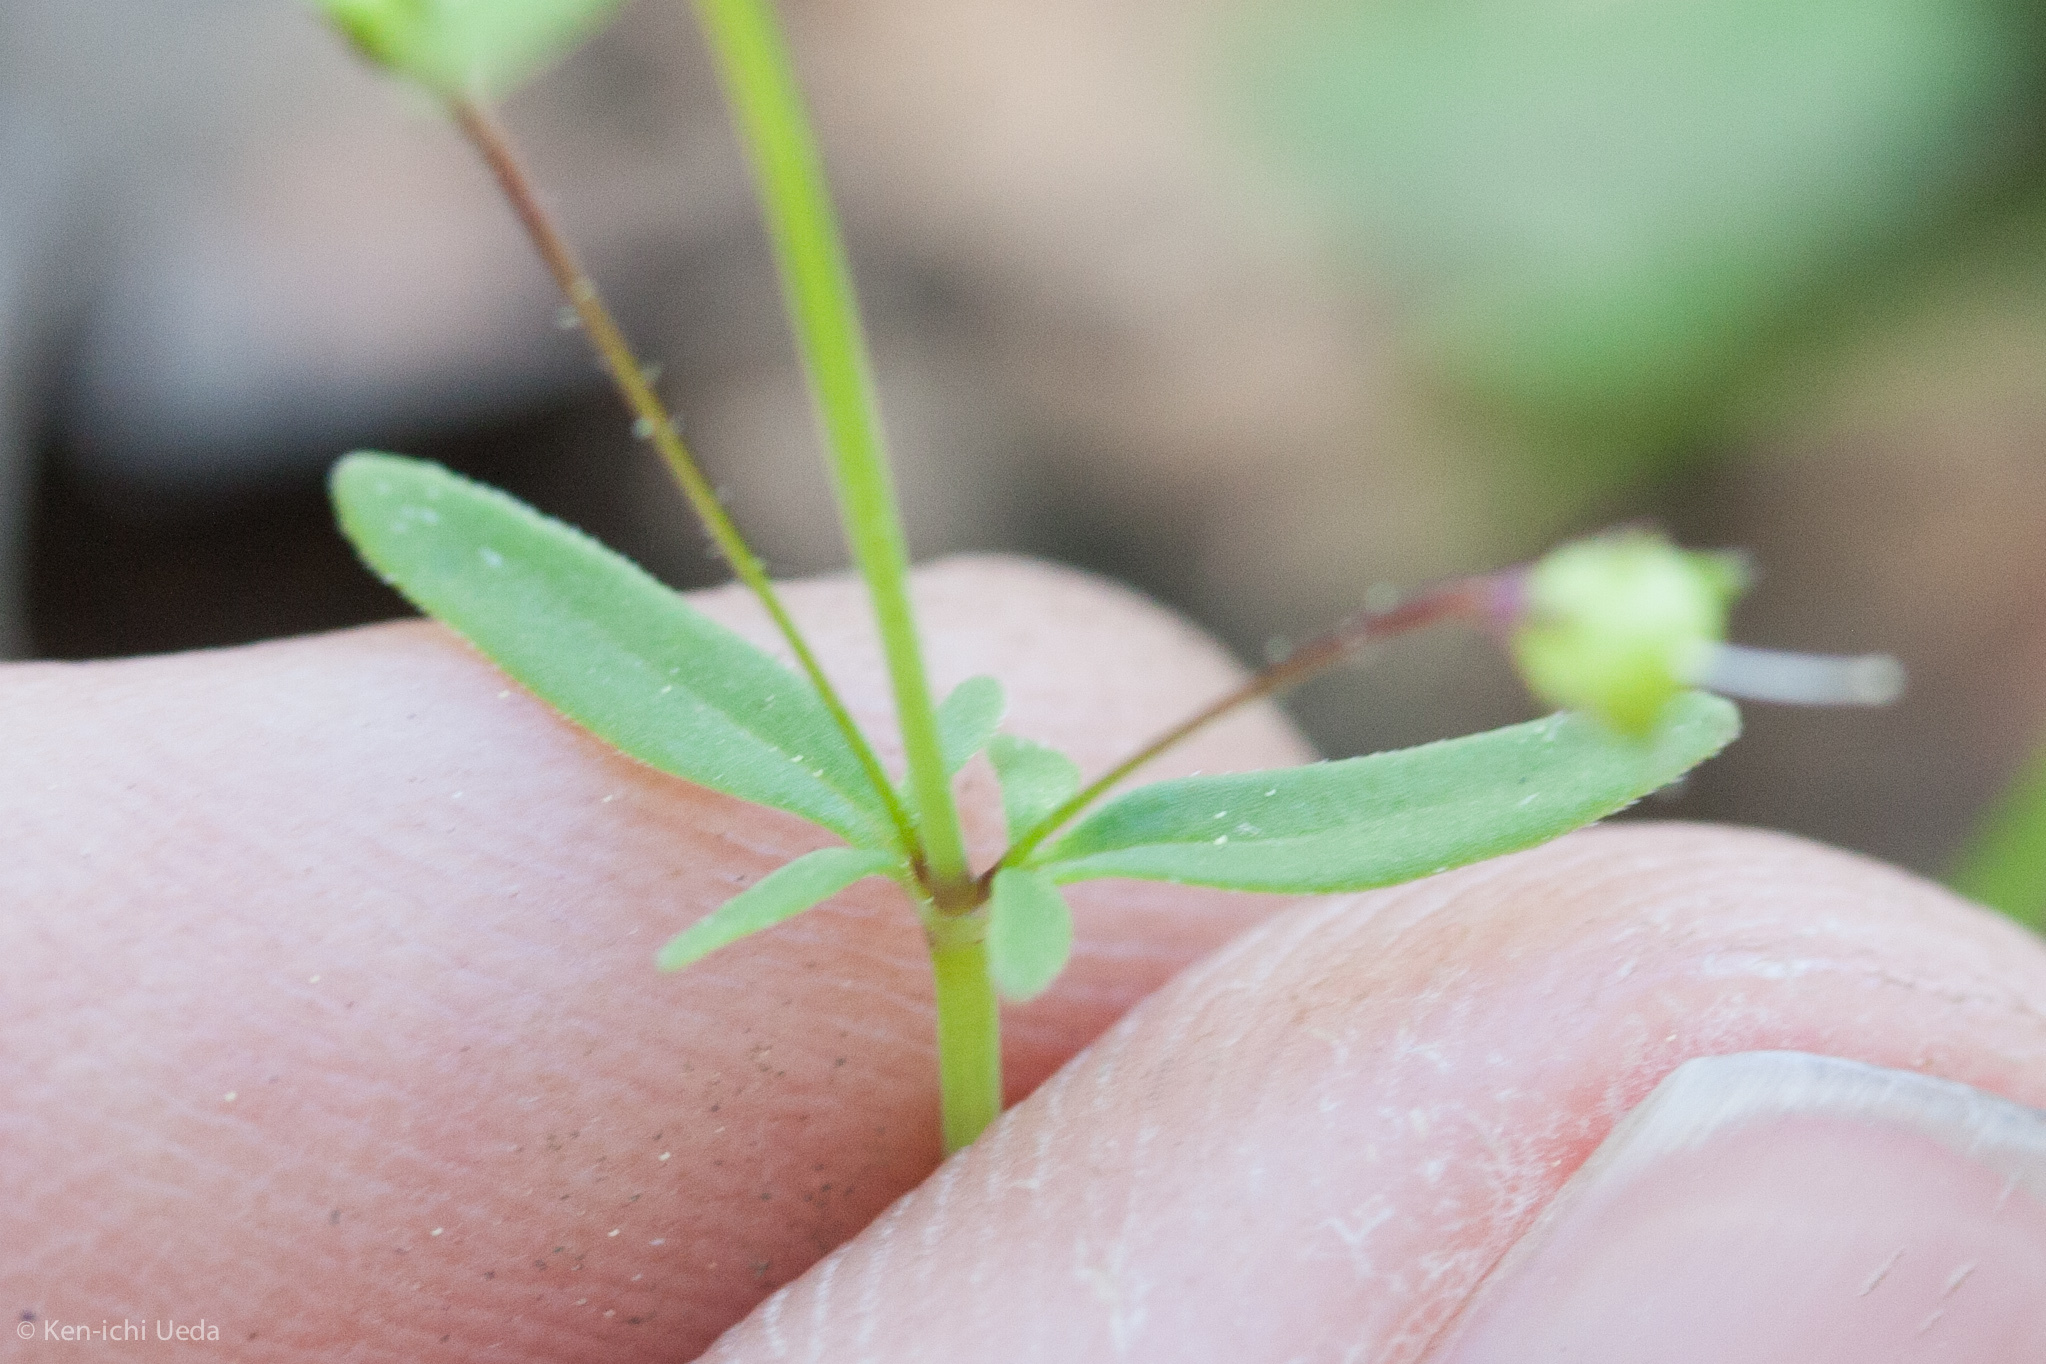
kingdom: Plantae
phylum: Tracheophyta
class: Magnoliopsida
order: Lamiales
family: Plantaginaceae
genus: Tonella
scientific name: Tonella tenella
